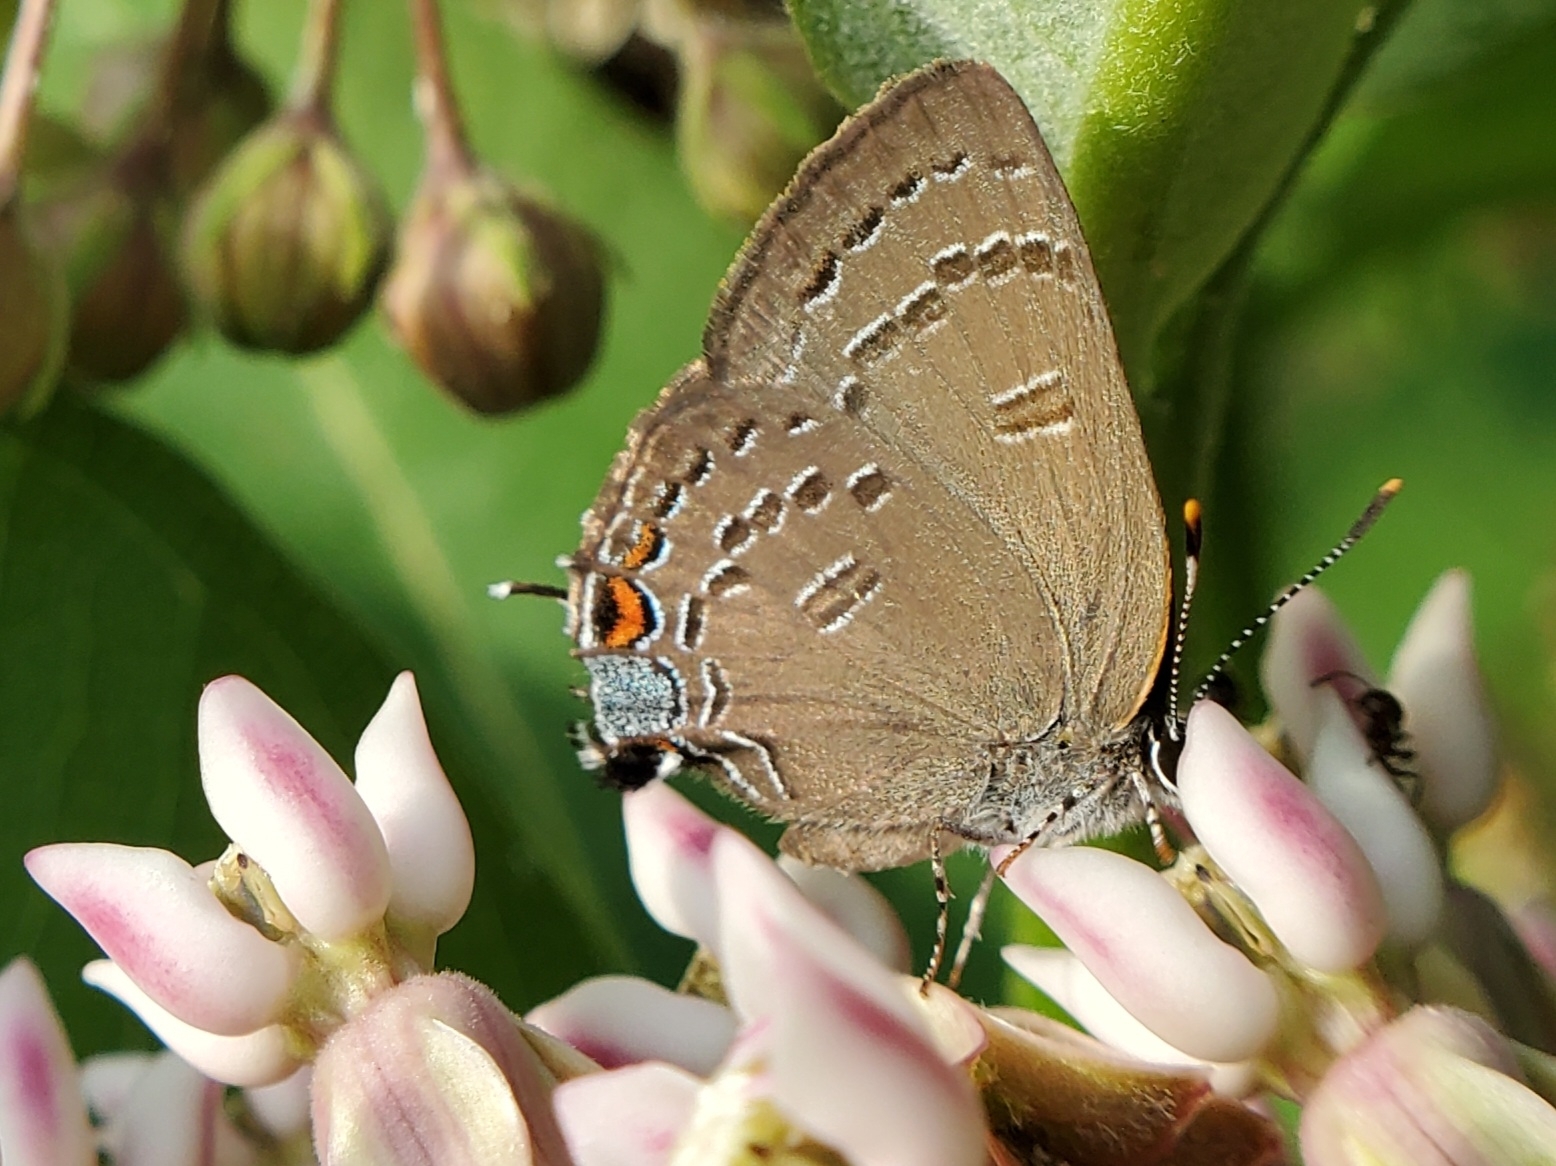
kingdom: Animalia
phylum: Arthropoda
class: Insecta
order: Lepidoptera
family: Lycaenidae
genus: Satyrium
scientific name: Satyrium calanus
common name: Banded hairstreak
